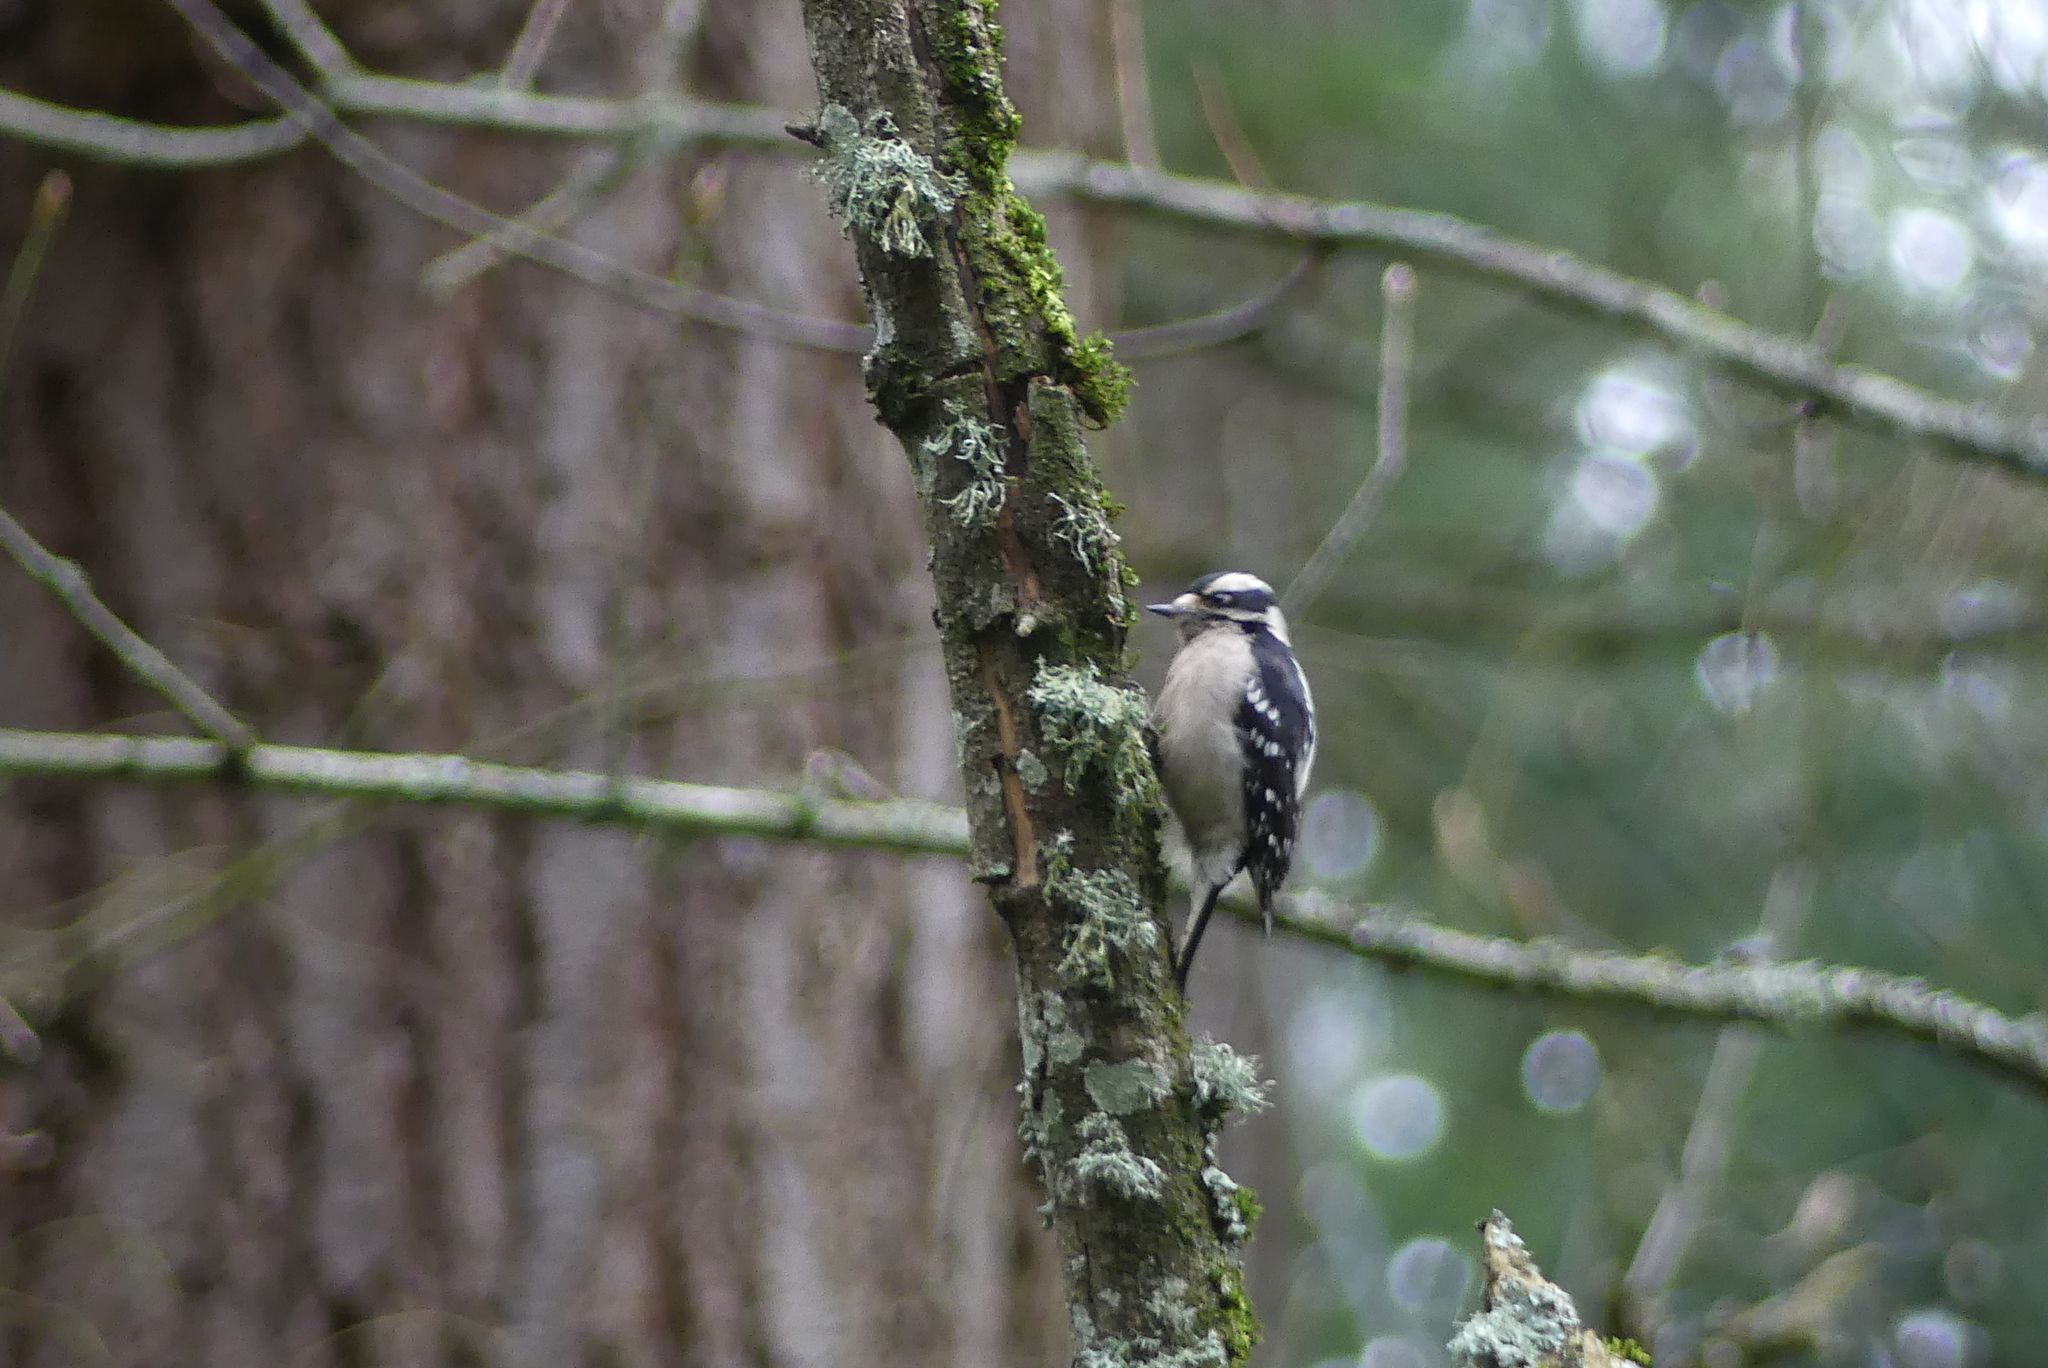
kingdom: Animalia
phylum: Chordata
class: Aves
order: Piciformes
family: Picidae
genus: Dryobates
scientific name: Dryobates pubescens
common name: Downy woodpecker
